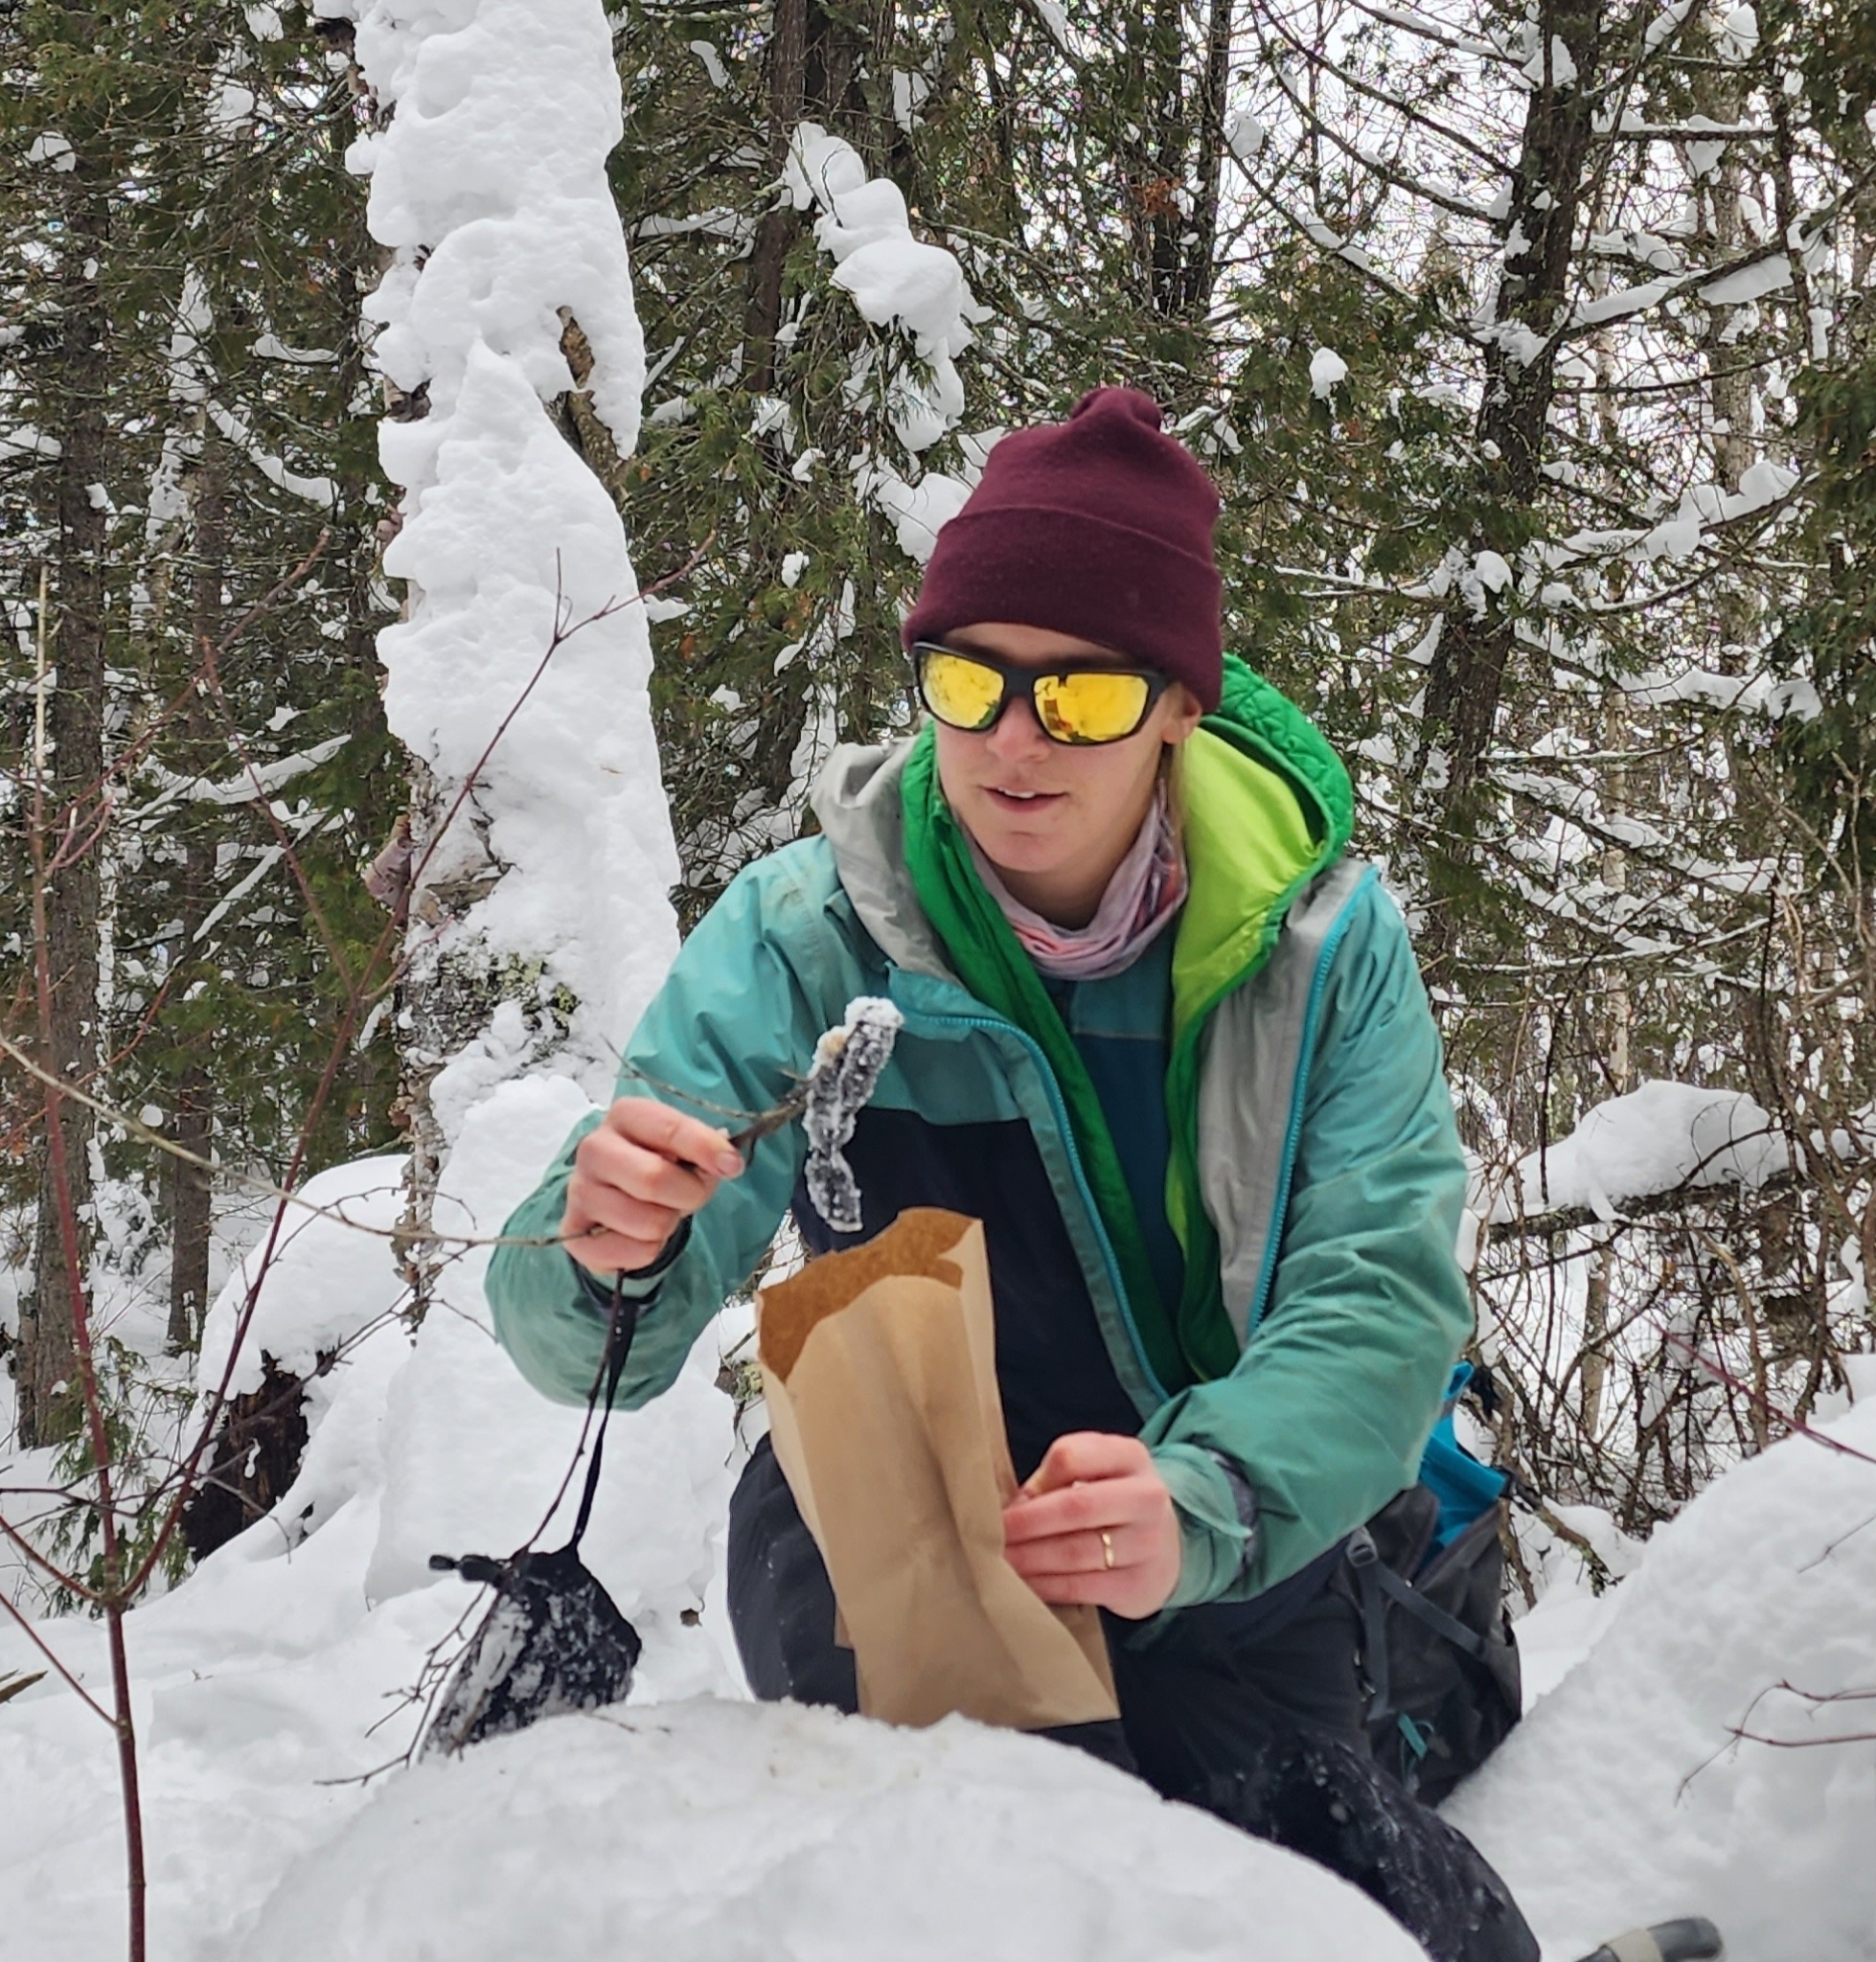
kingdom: Animalia
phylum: Chordata
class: Mammalia
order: Carnivora
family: Felidae
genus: Lynx
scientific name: Lynx canadensis
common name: Canadian lynx
